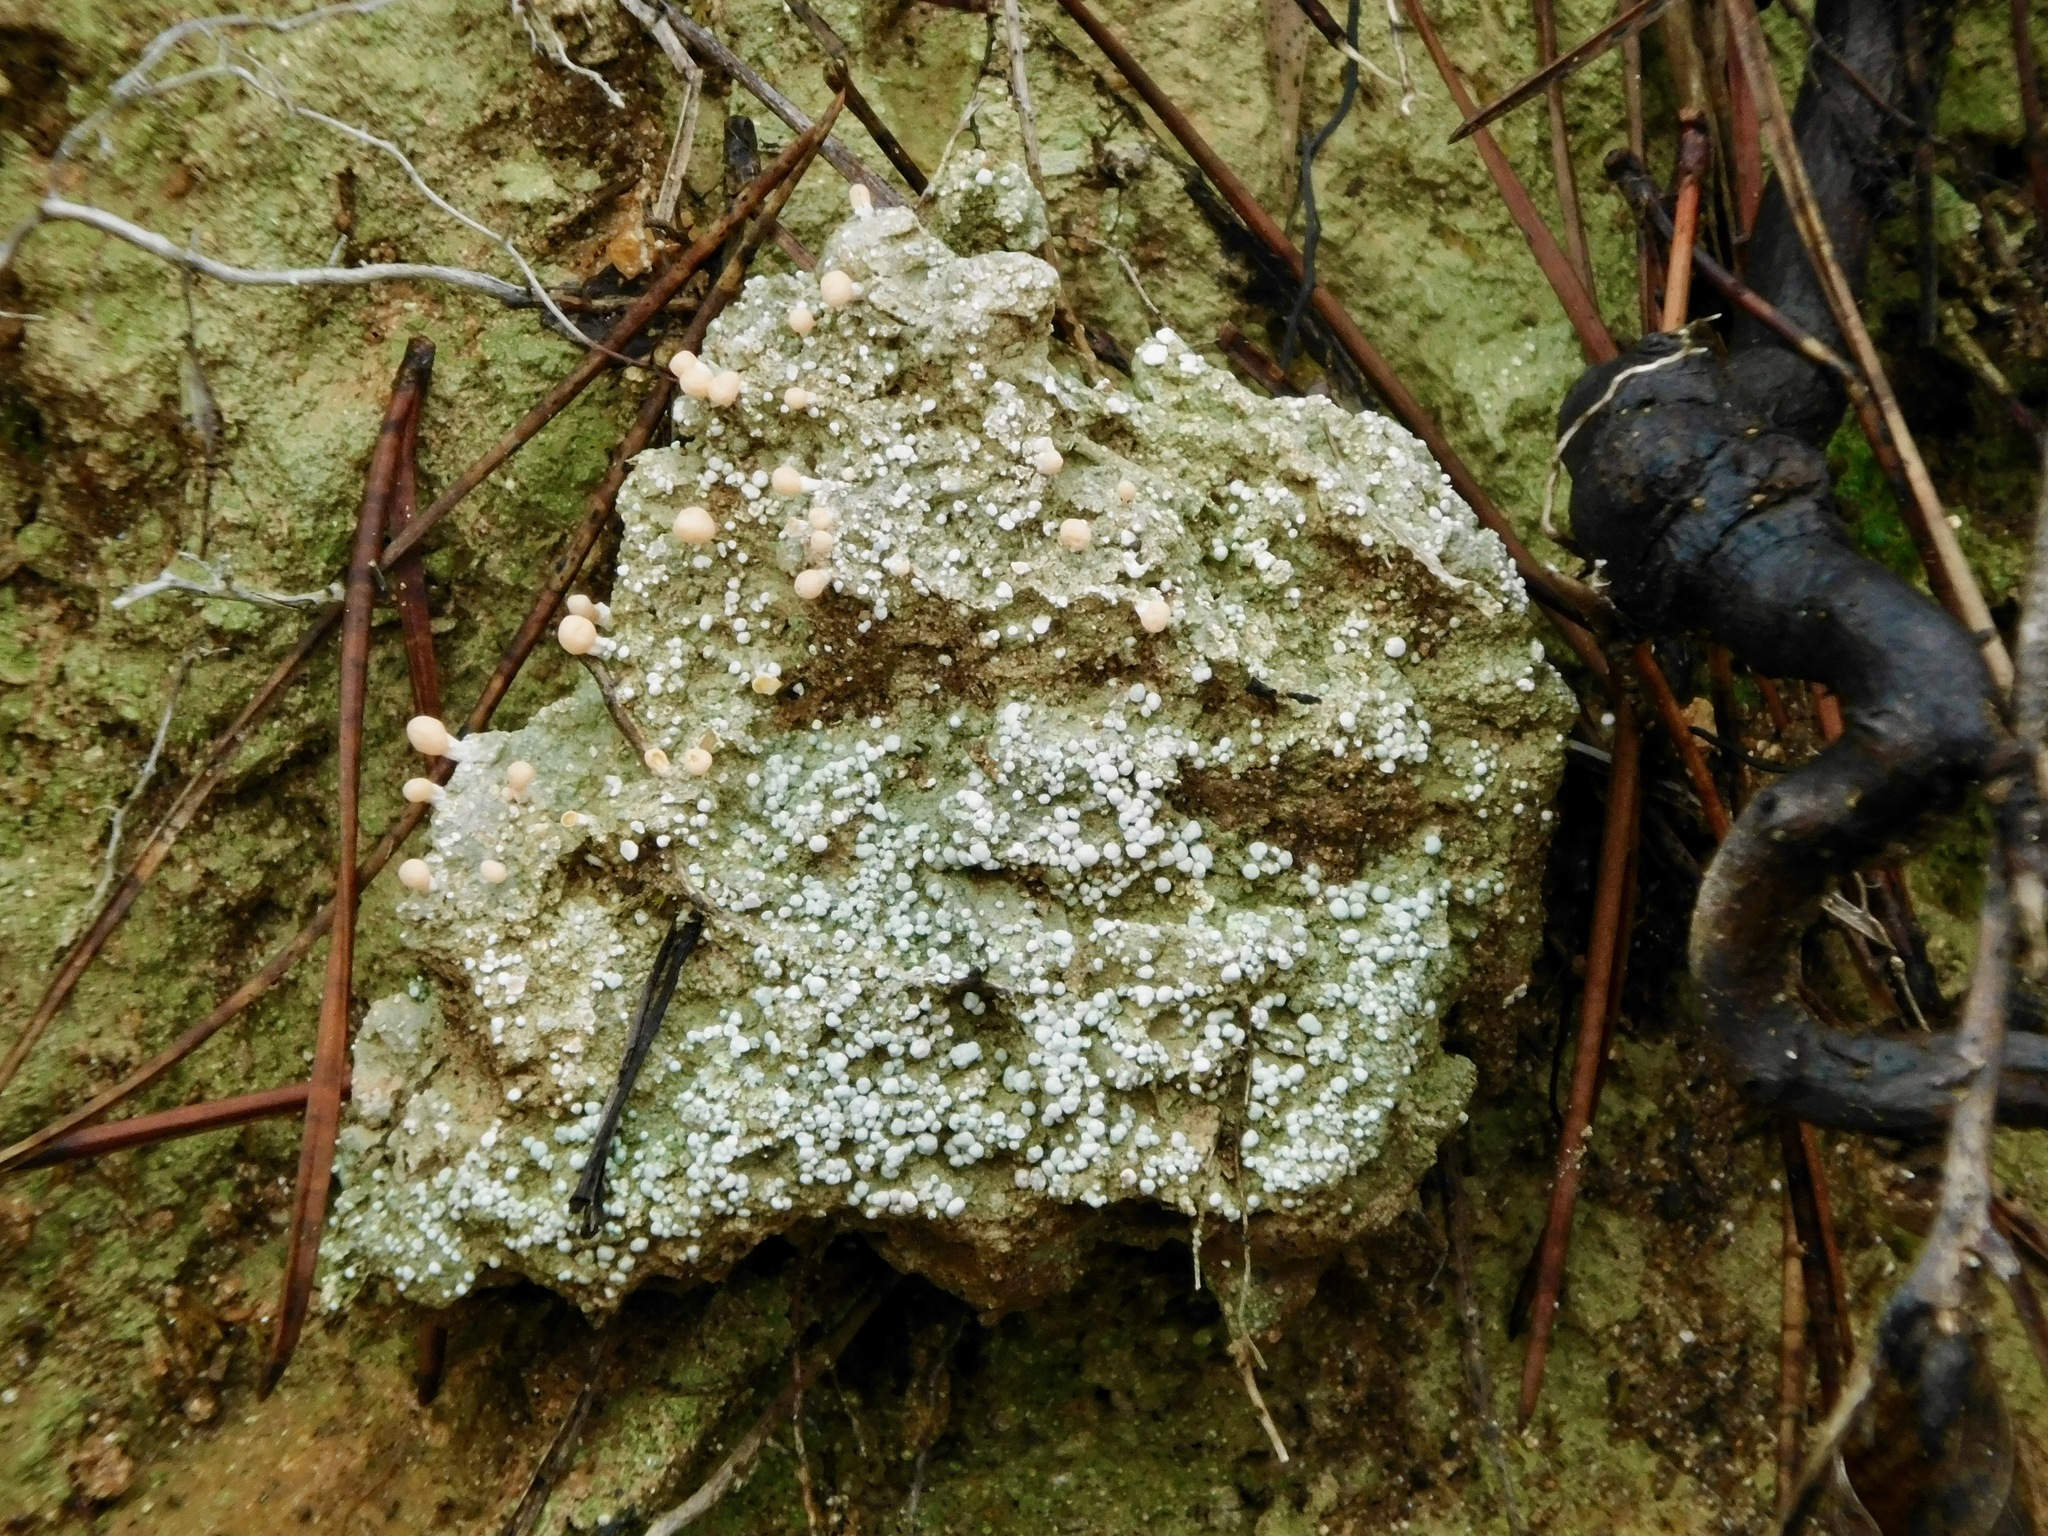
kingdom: Fungi
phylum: Ascomycota
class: Lecanoromycetes
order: Pertusariales
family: Icmadophilaceae
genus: Dibaeis
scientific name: Dibaeis baeomyces
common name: Pink earth lichen
